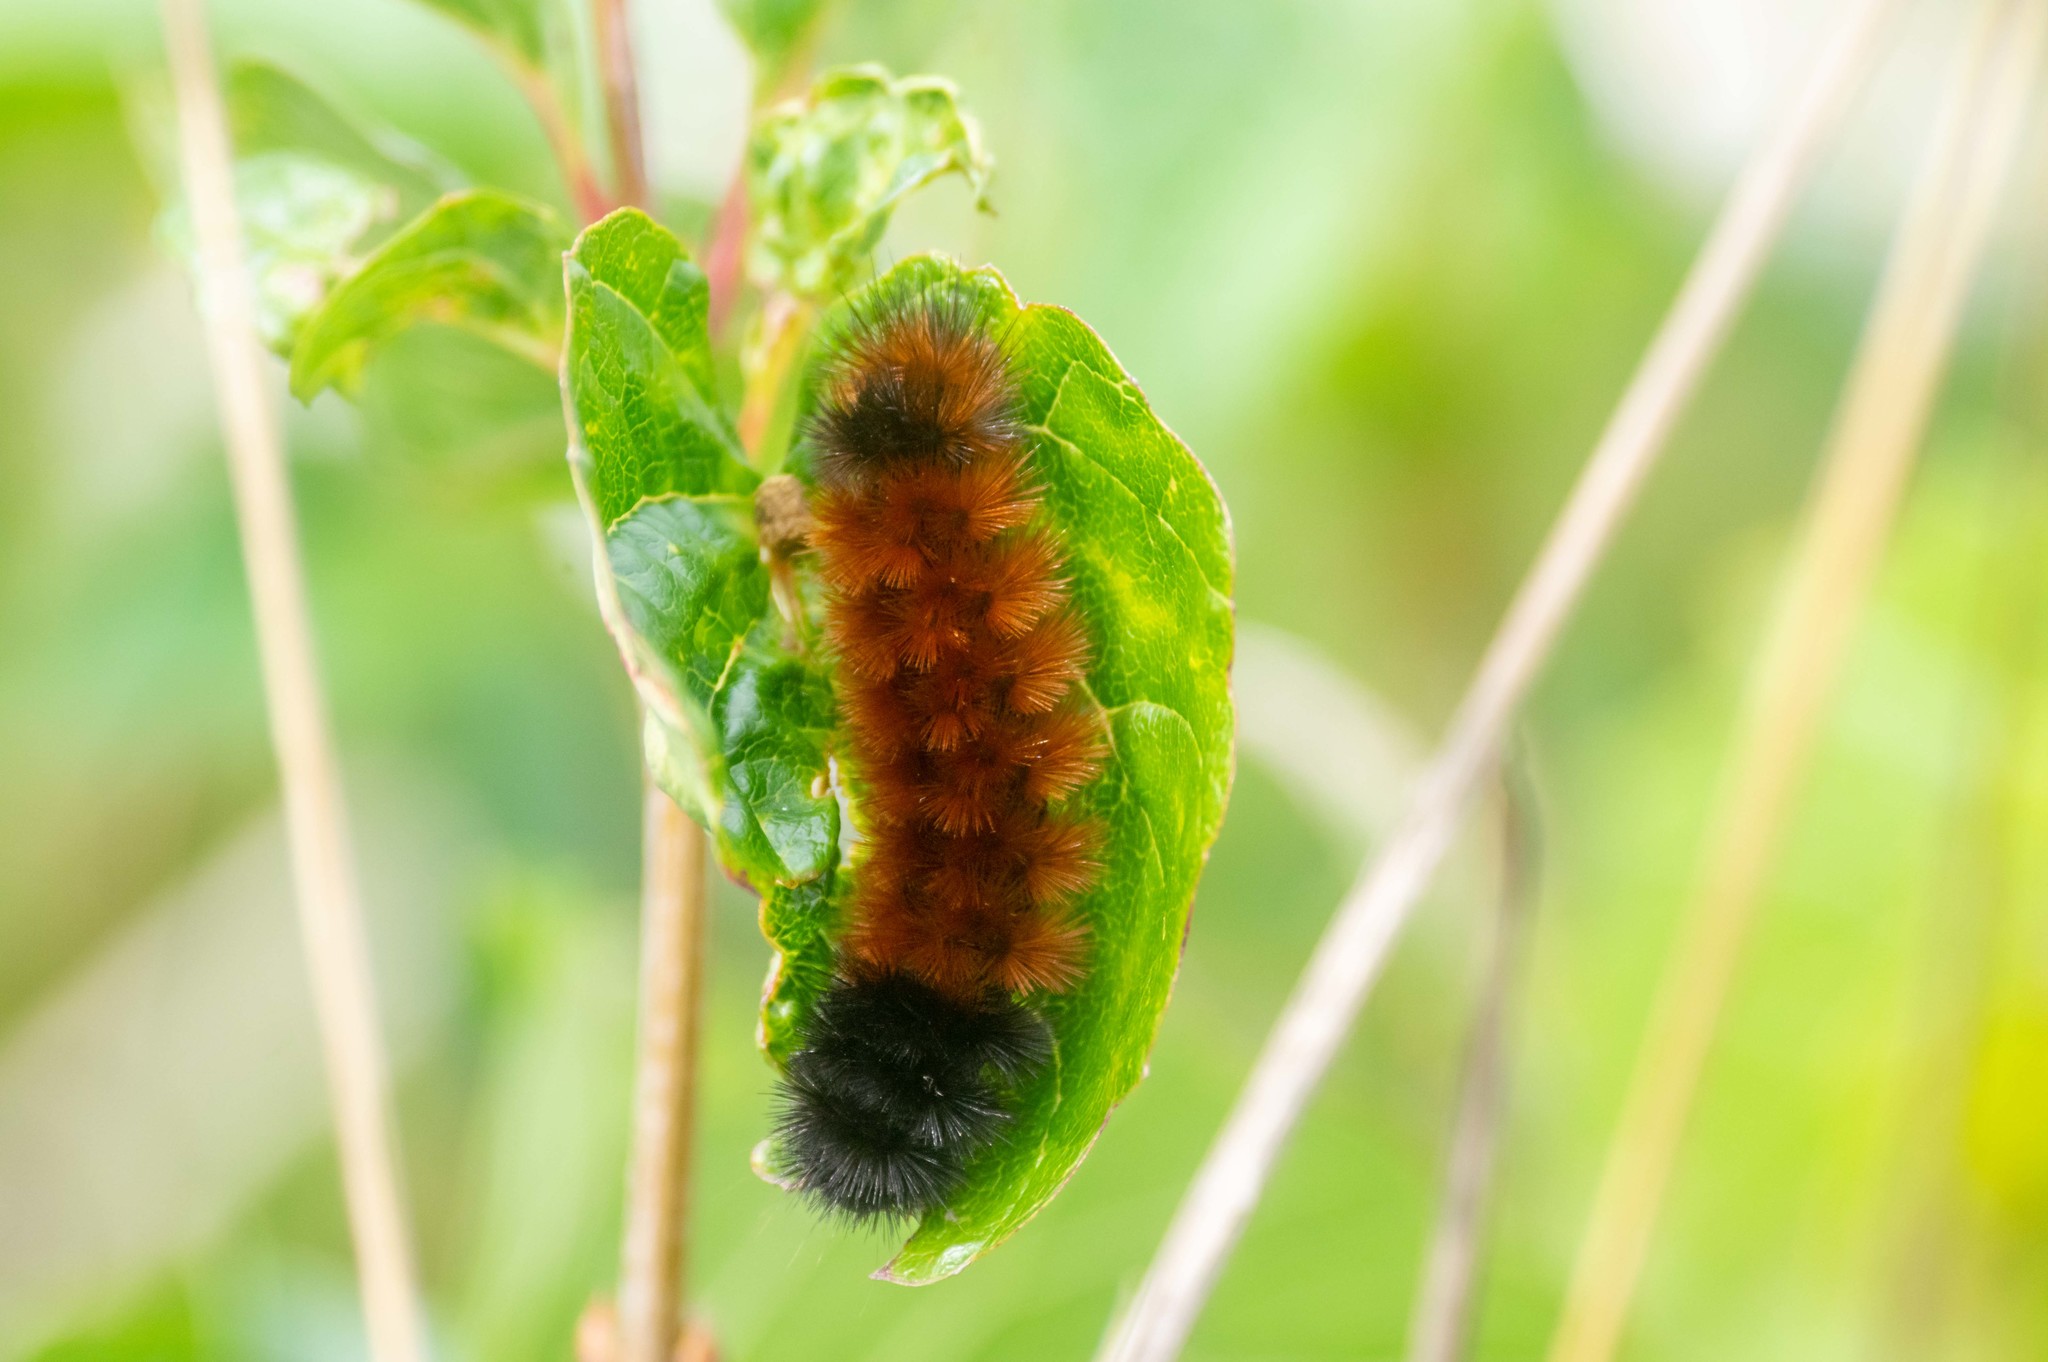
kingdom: Animalia
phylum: Arthropoda
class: Insecta
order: Lepidoptera
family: Erebidae
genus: Pyrrharctia
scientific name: Pyrrharctia isabella
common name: Isabella tiger moth
